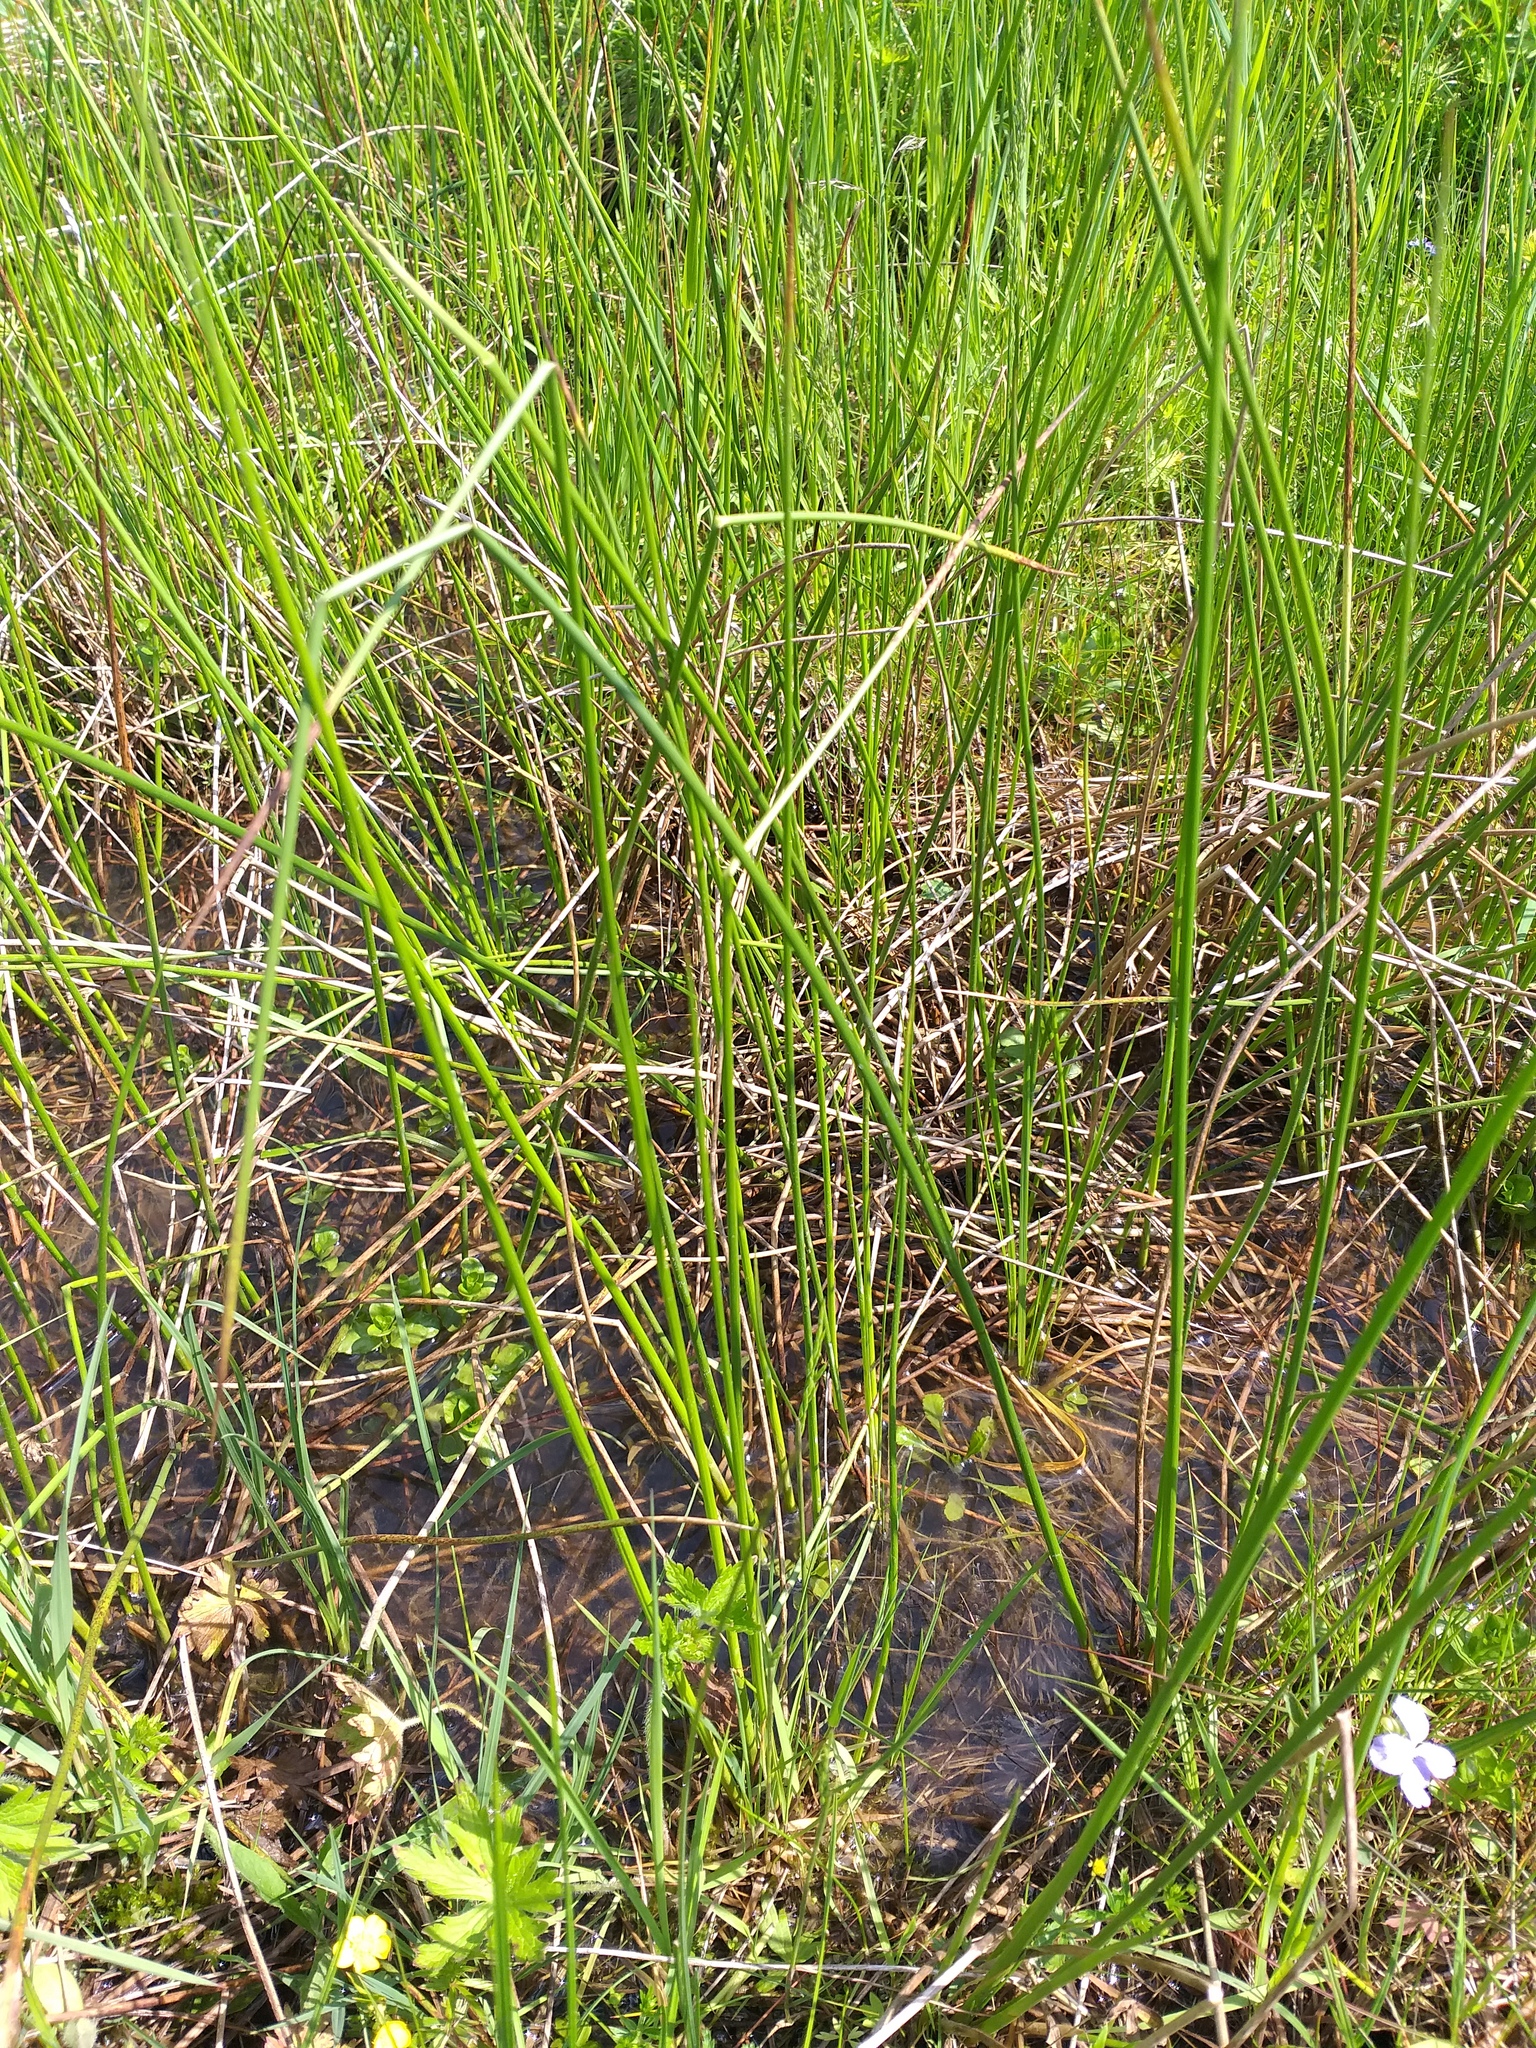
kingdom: Plantae
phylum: Tracheophyta
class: Liliopsida
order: Poales
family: Juncaceae
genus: Juncus
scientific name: Juncus effusus
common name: Soft rush
